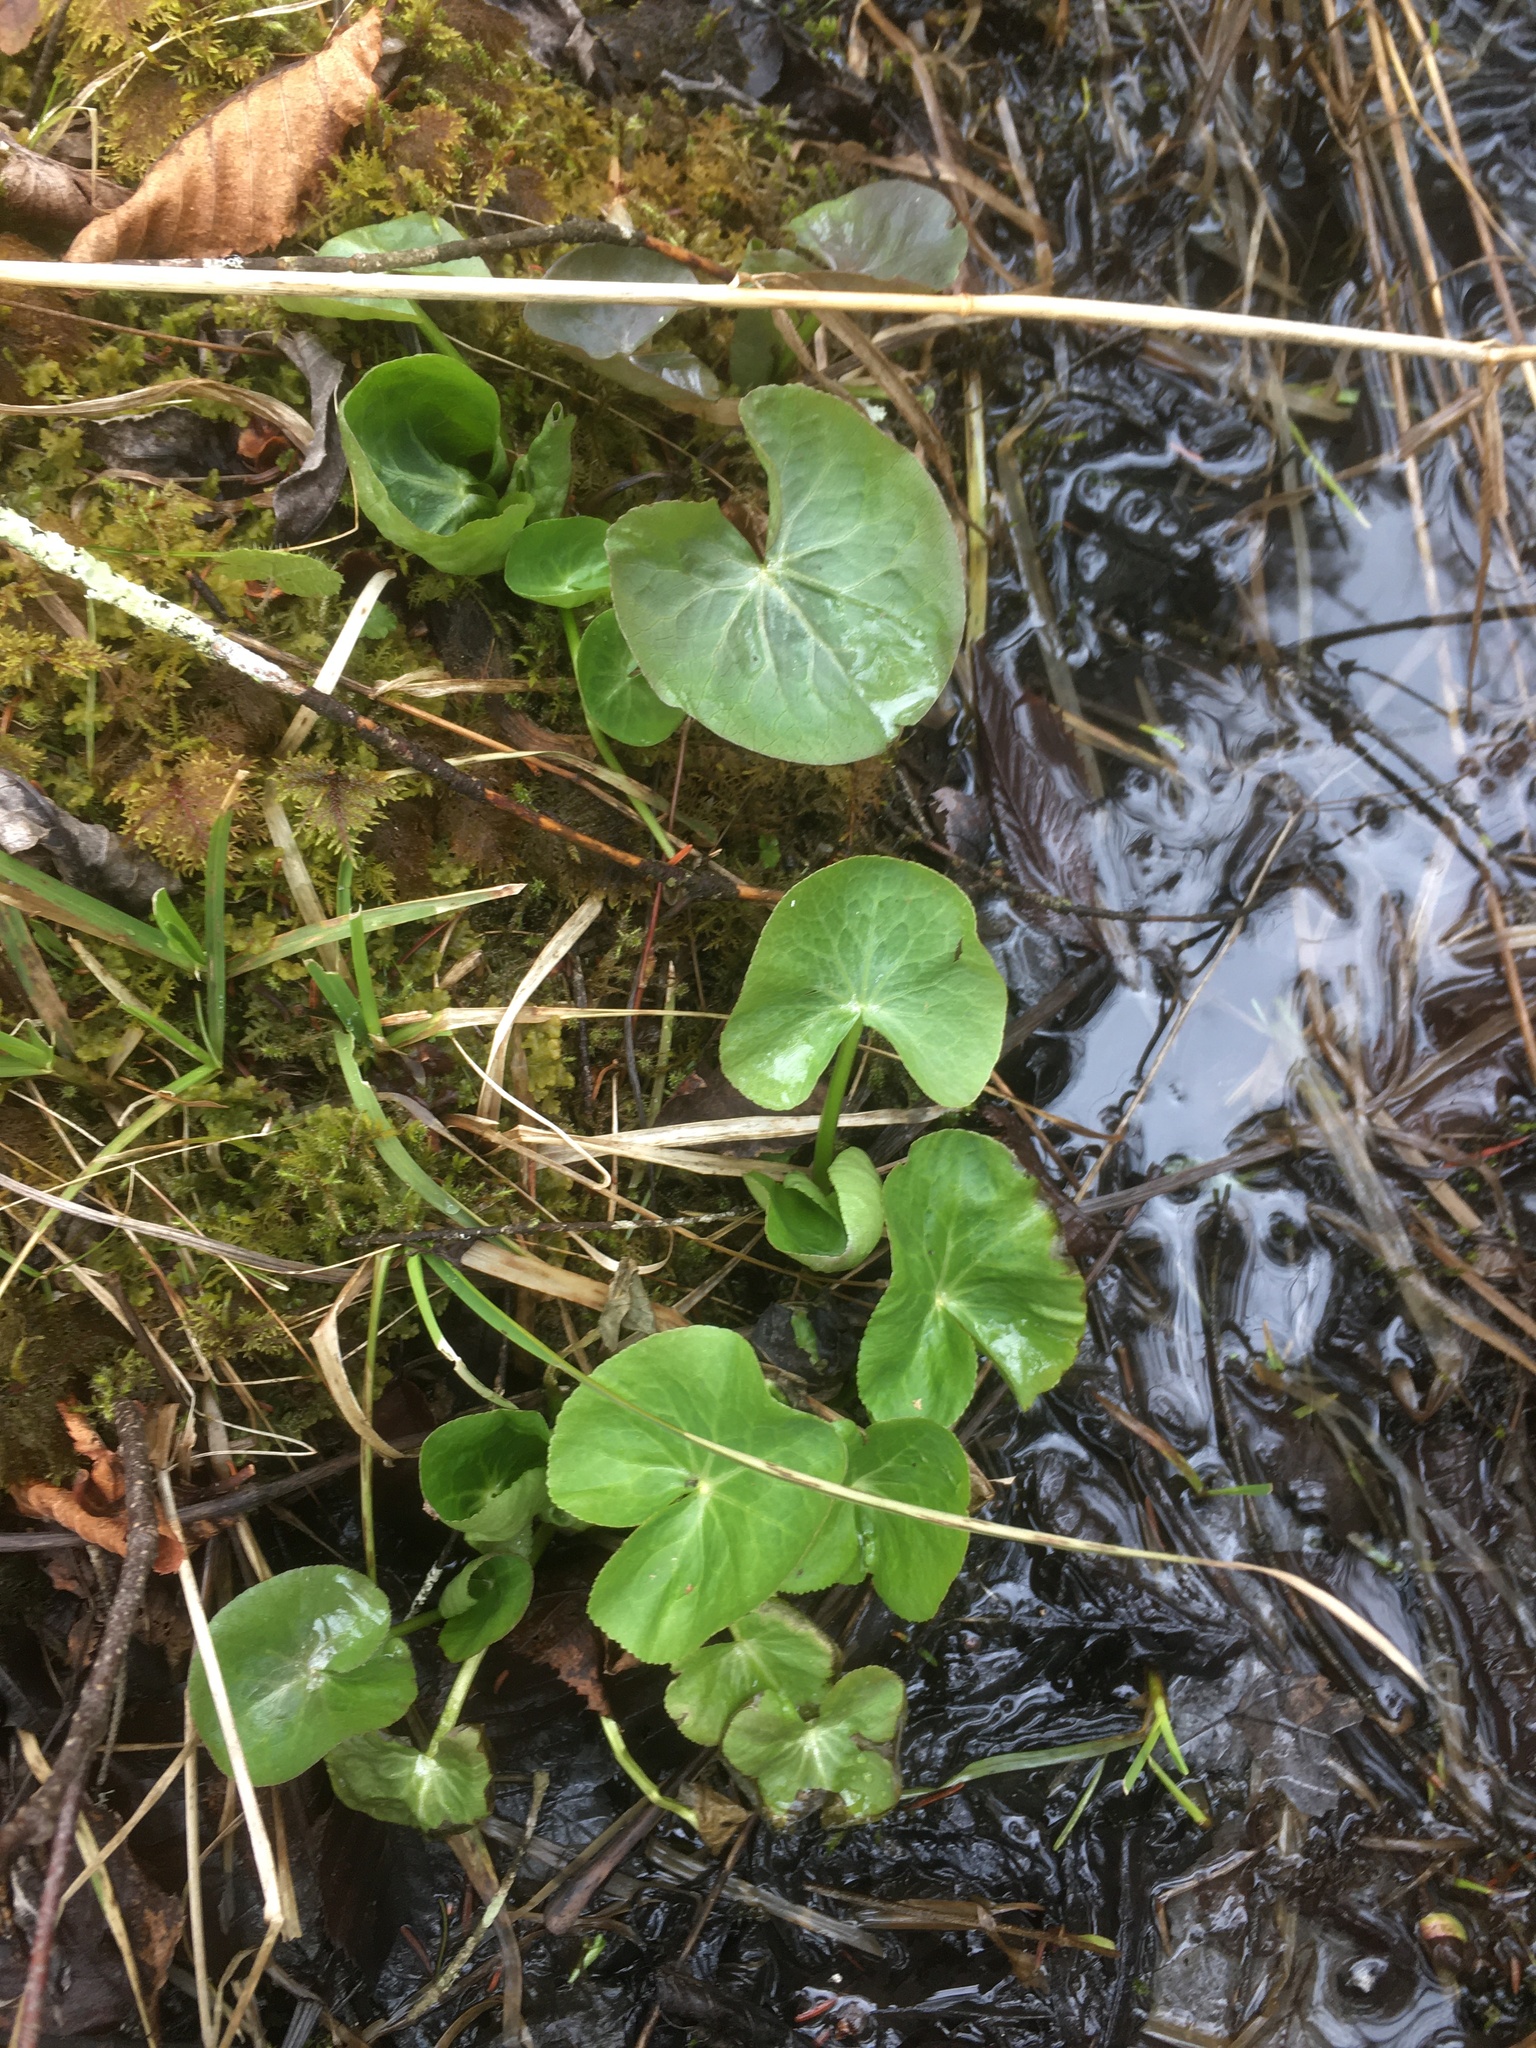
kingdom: Plantae
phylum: Tracheophyta
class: Magnoliopsida
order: Ranunculales
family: Ranunculaceae
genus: Caltha
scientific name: Caltha palustris
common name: Marsh marigold
